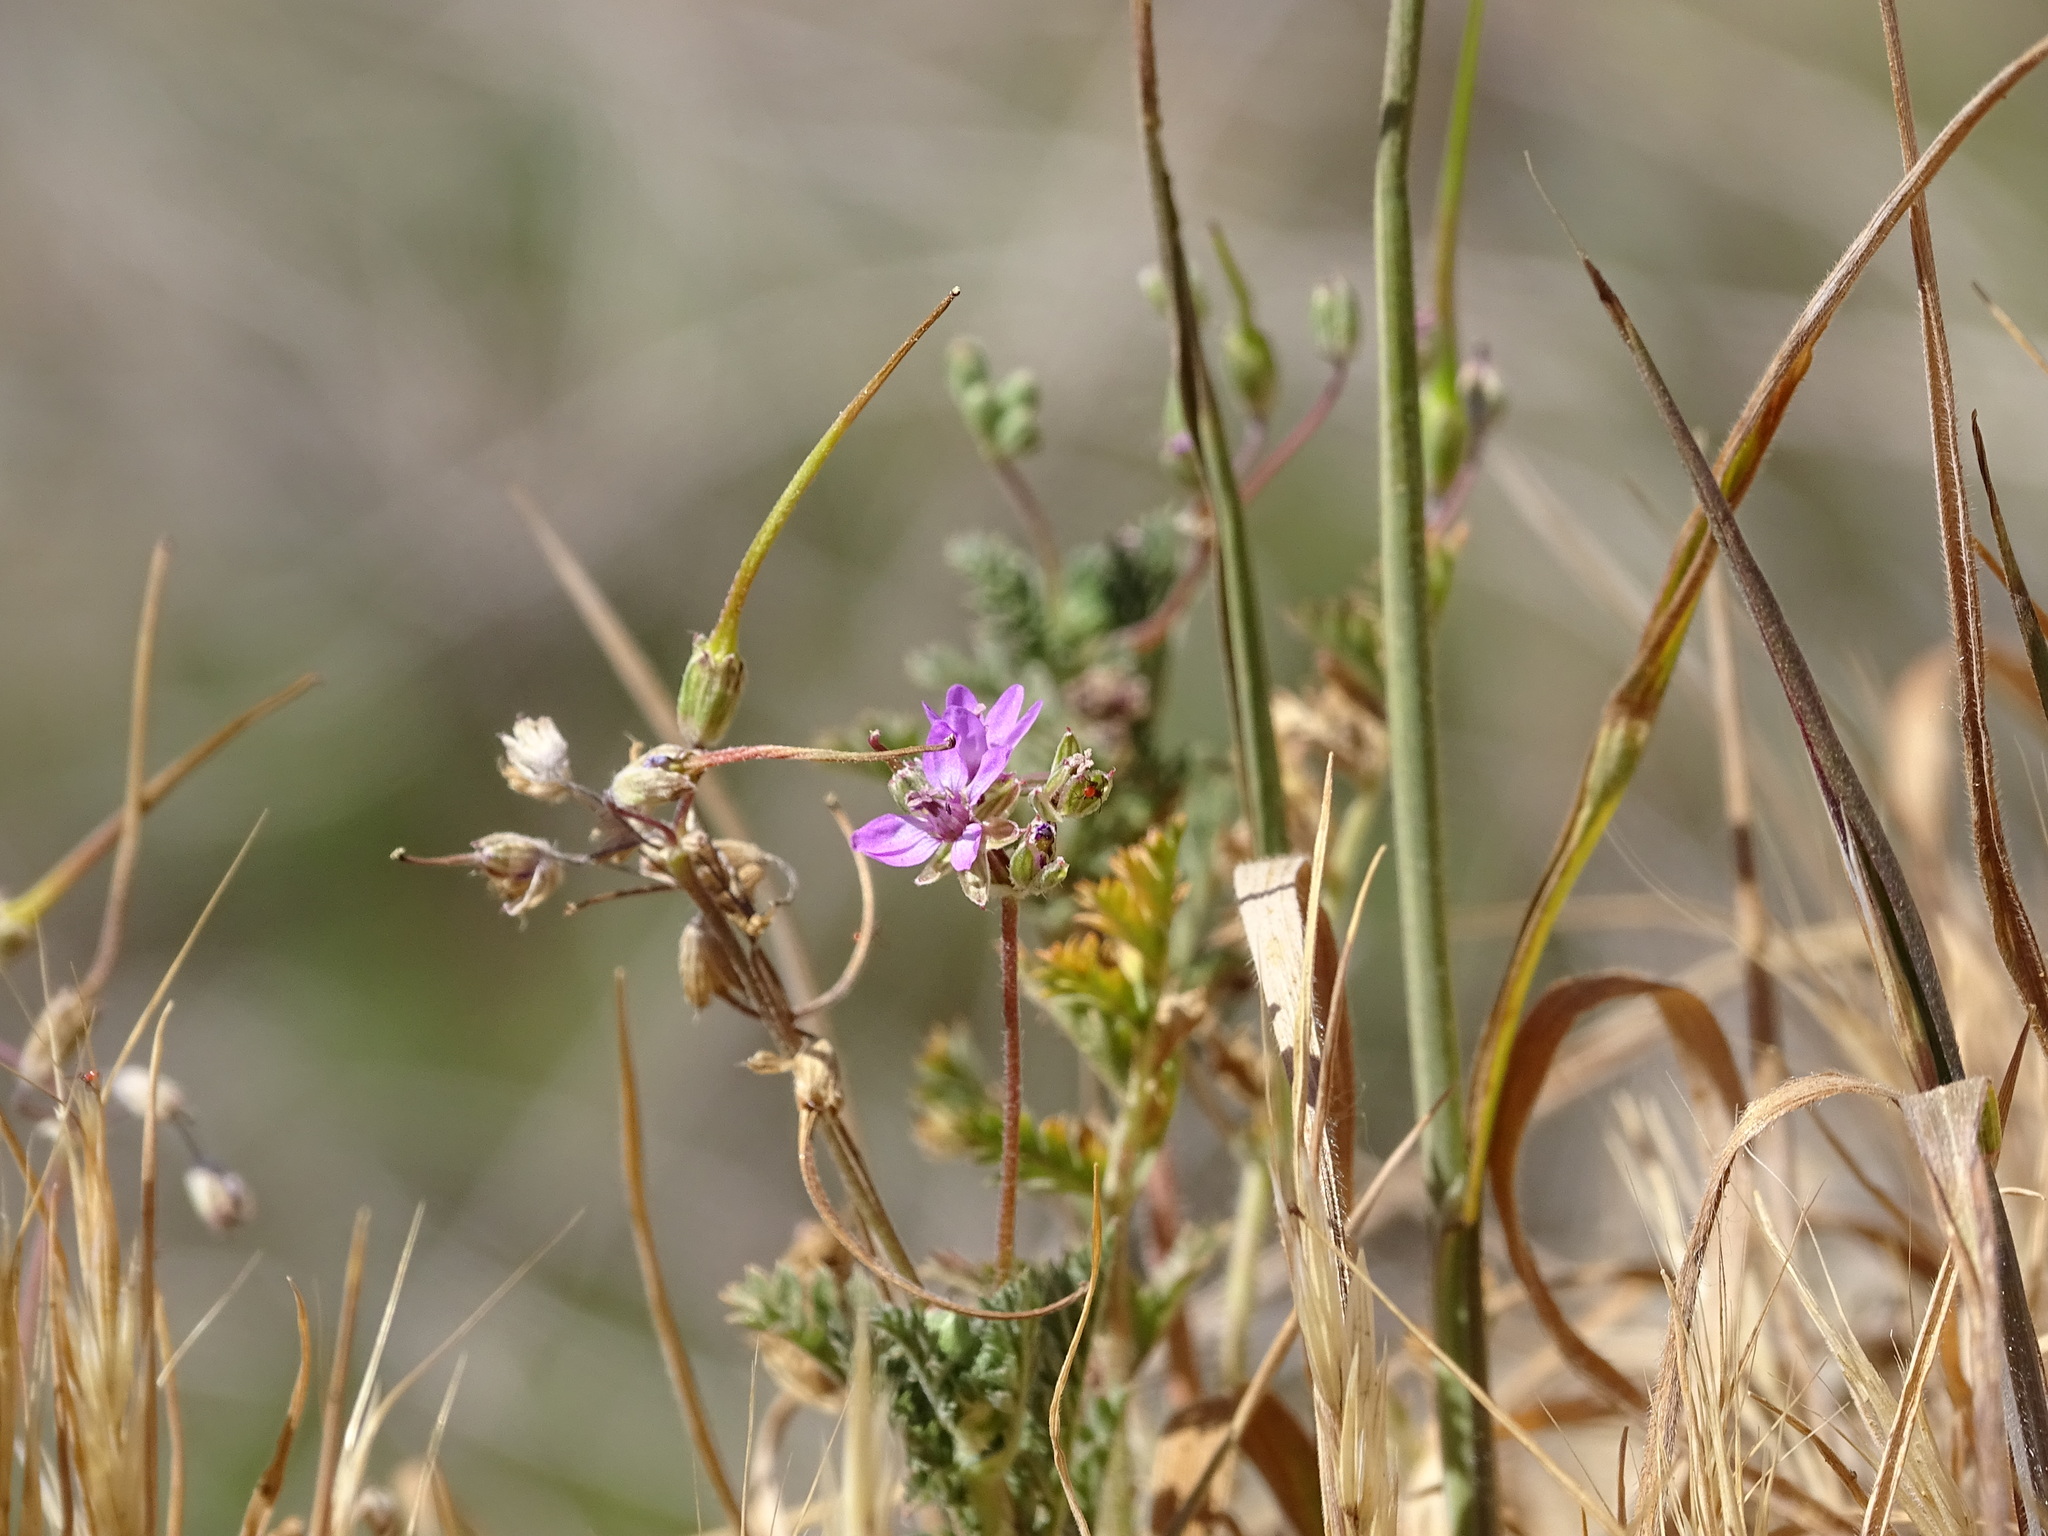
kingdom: Plantae
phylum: Tracheophyta
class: Magnoliopsida
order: Geraniales
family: Geraniaceae
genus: Erodium
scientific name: Erodium cicutarium
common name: Common stork's-bill
